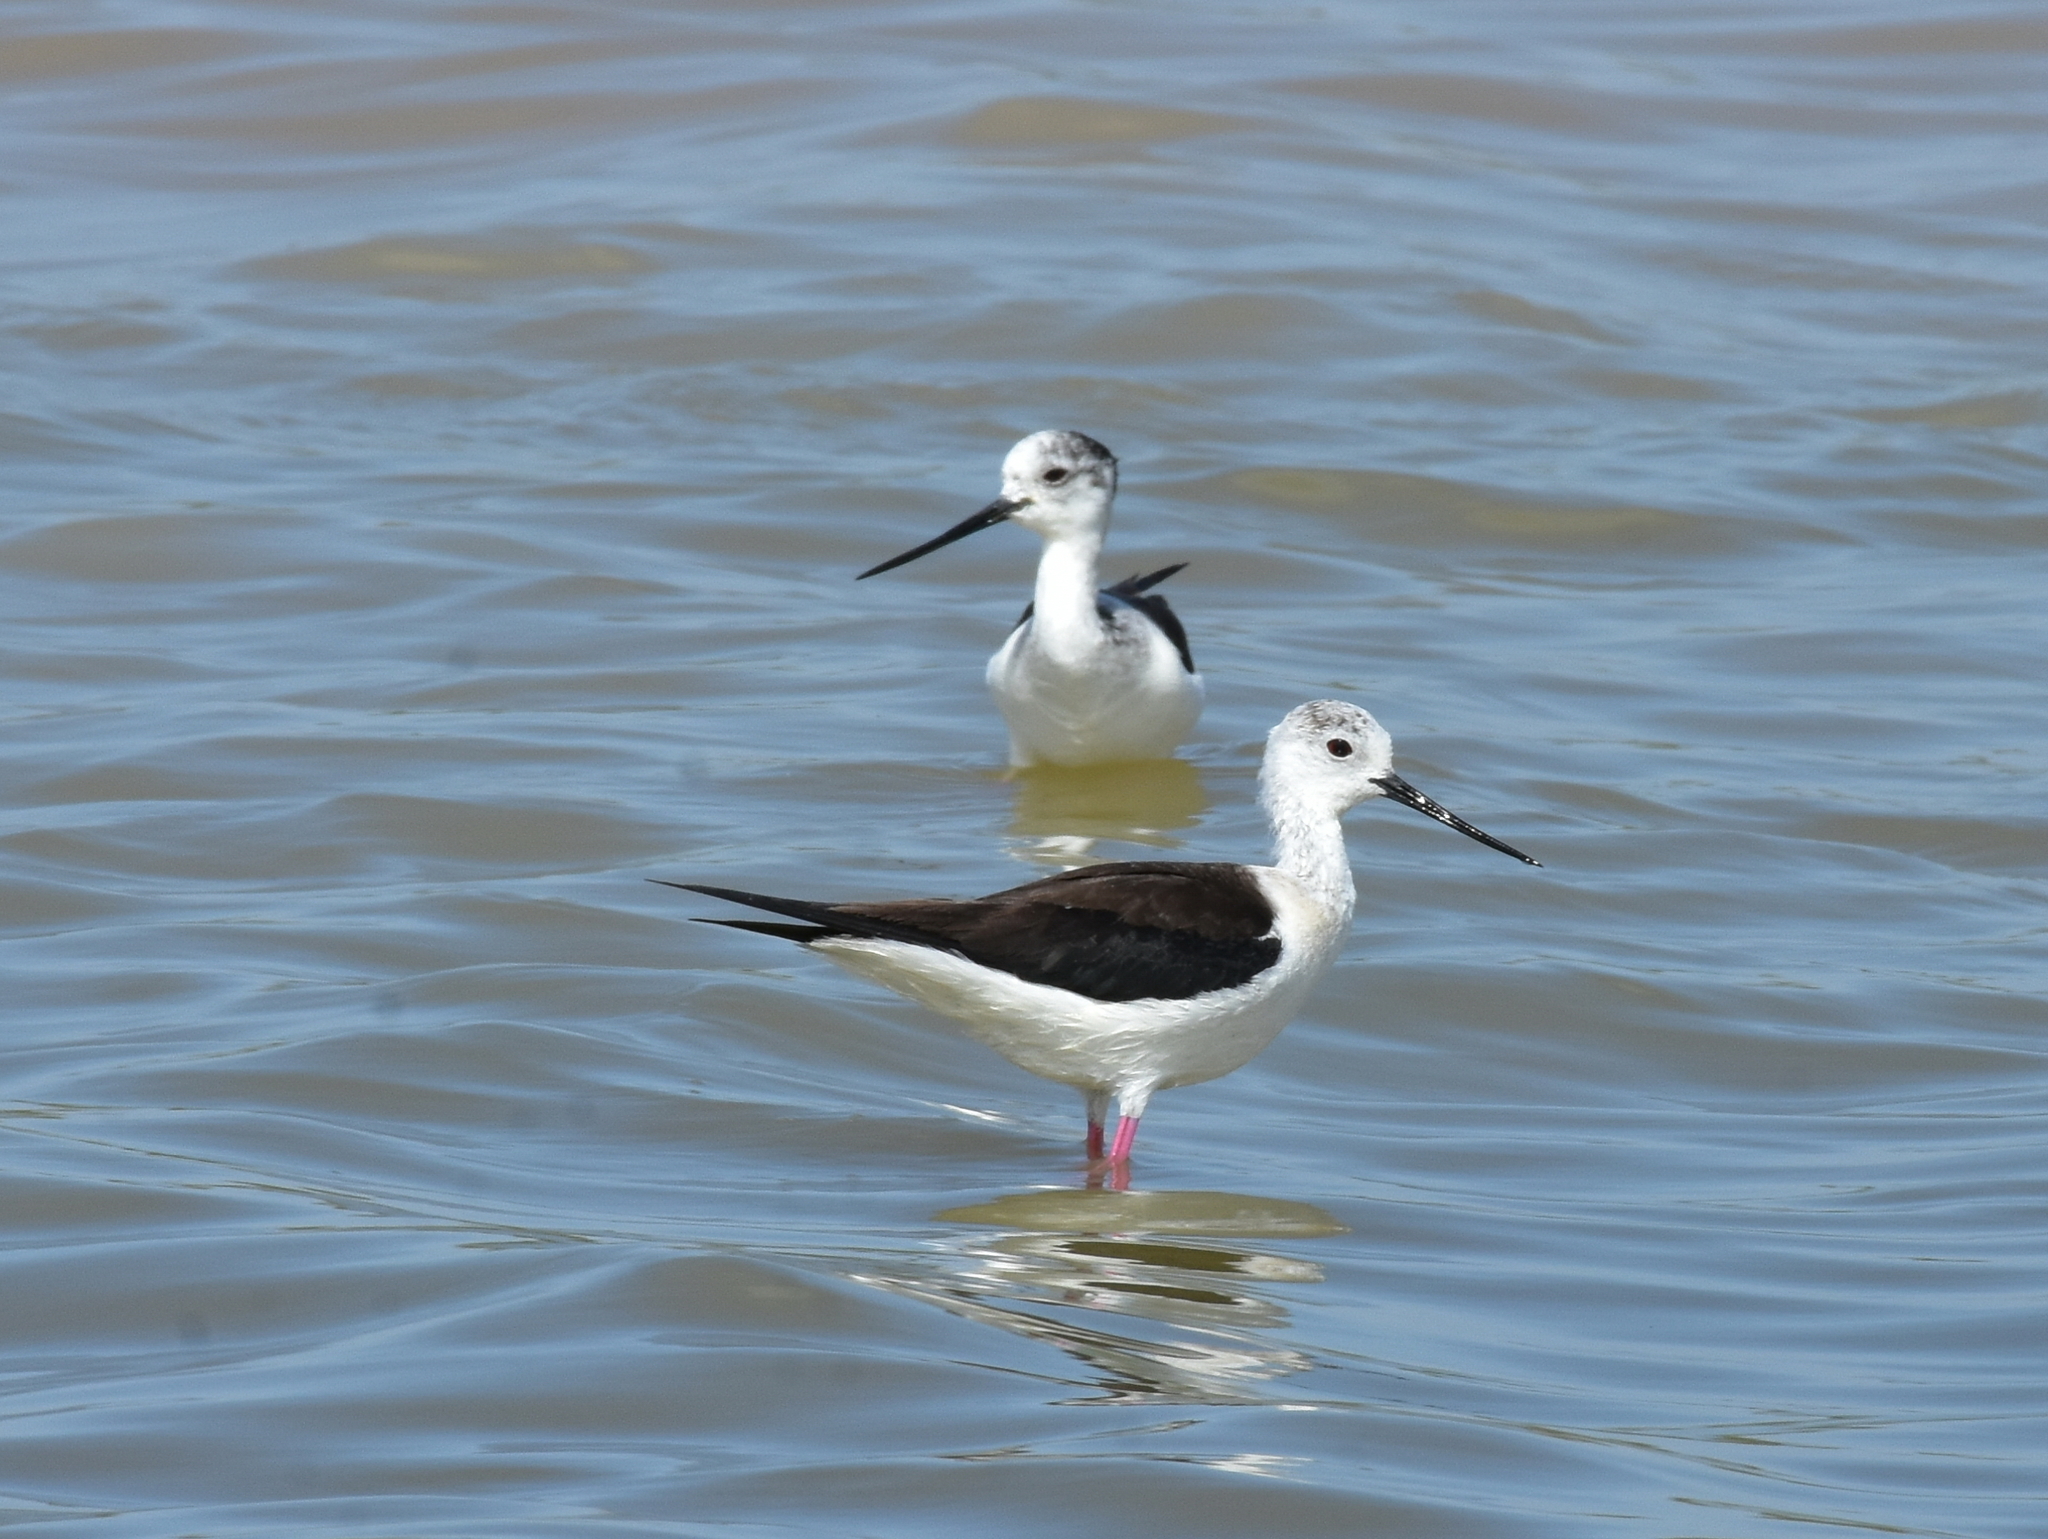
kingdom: Animalia
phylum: Chordata
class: Aves
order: Charadriiformes
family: Recurvirostridae
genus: Himantopus
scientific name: Himantopus himantopus
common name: Black-winged stilt
